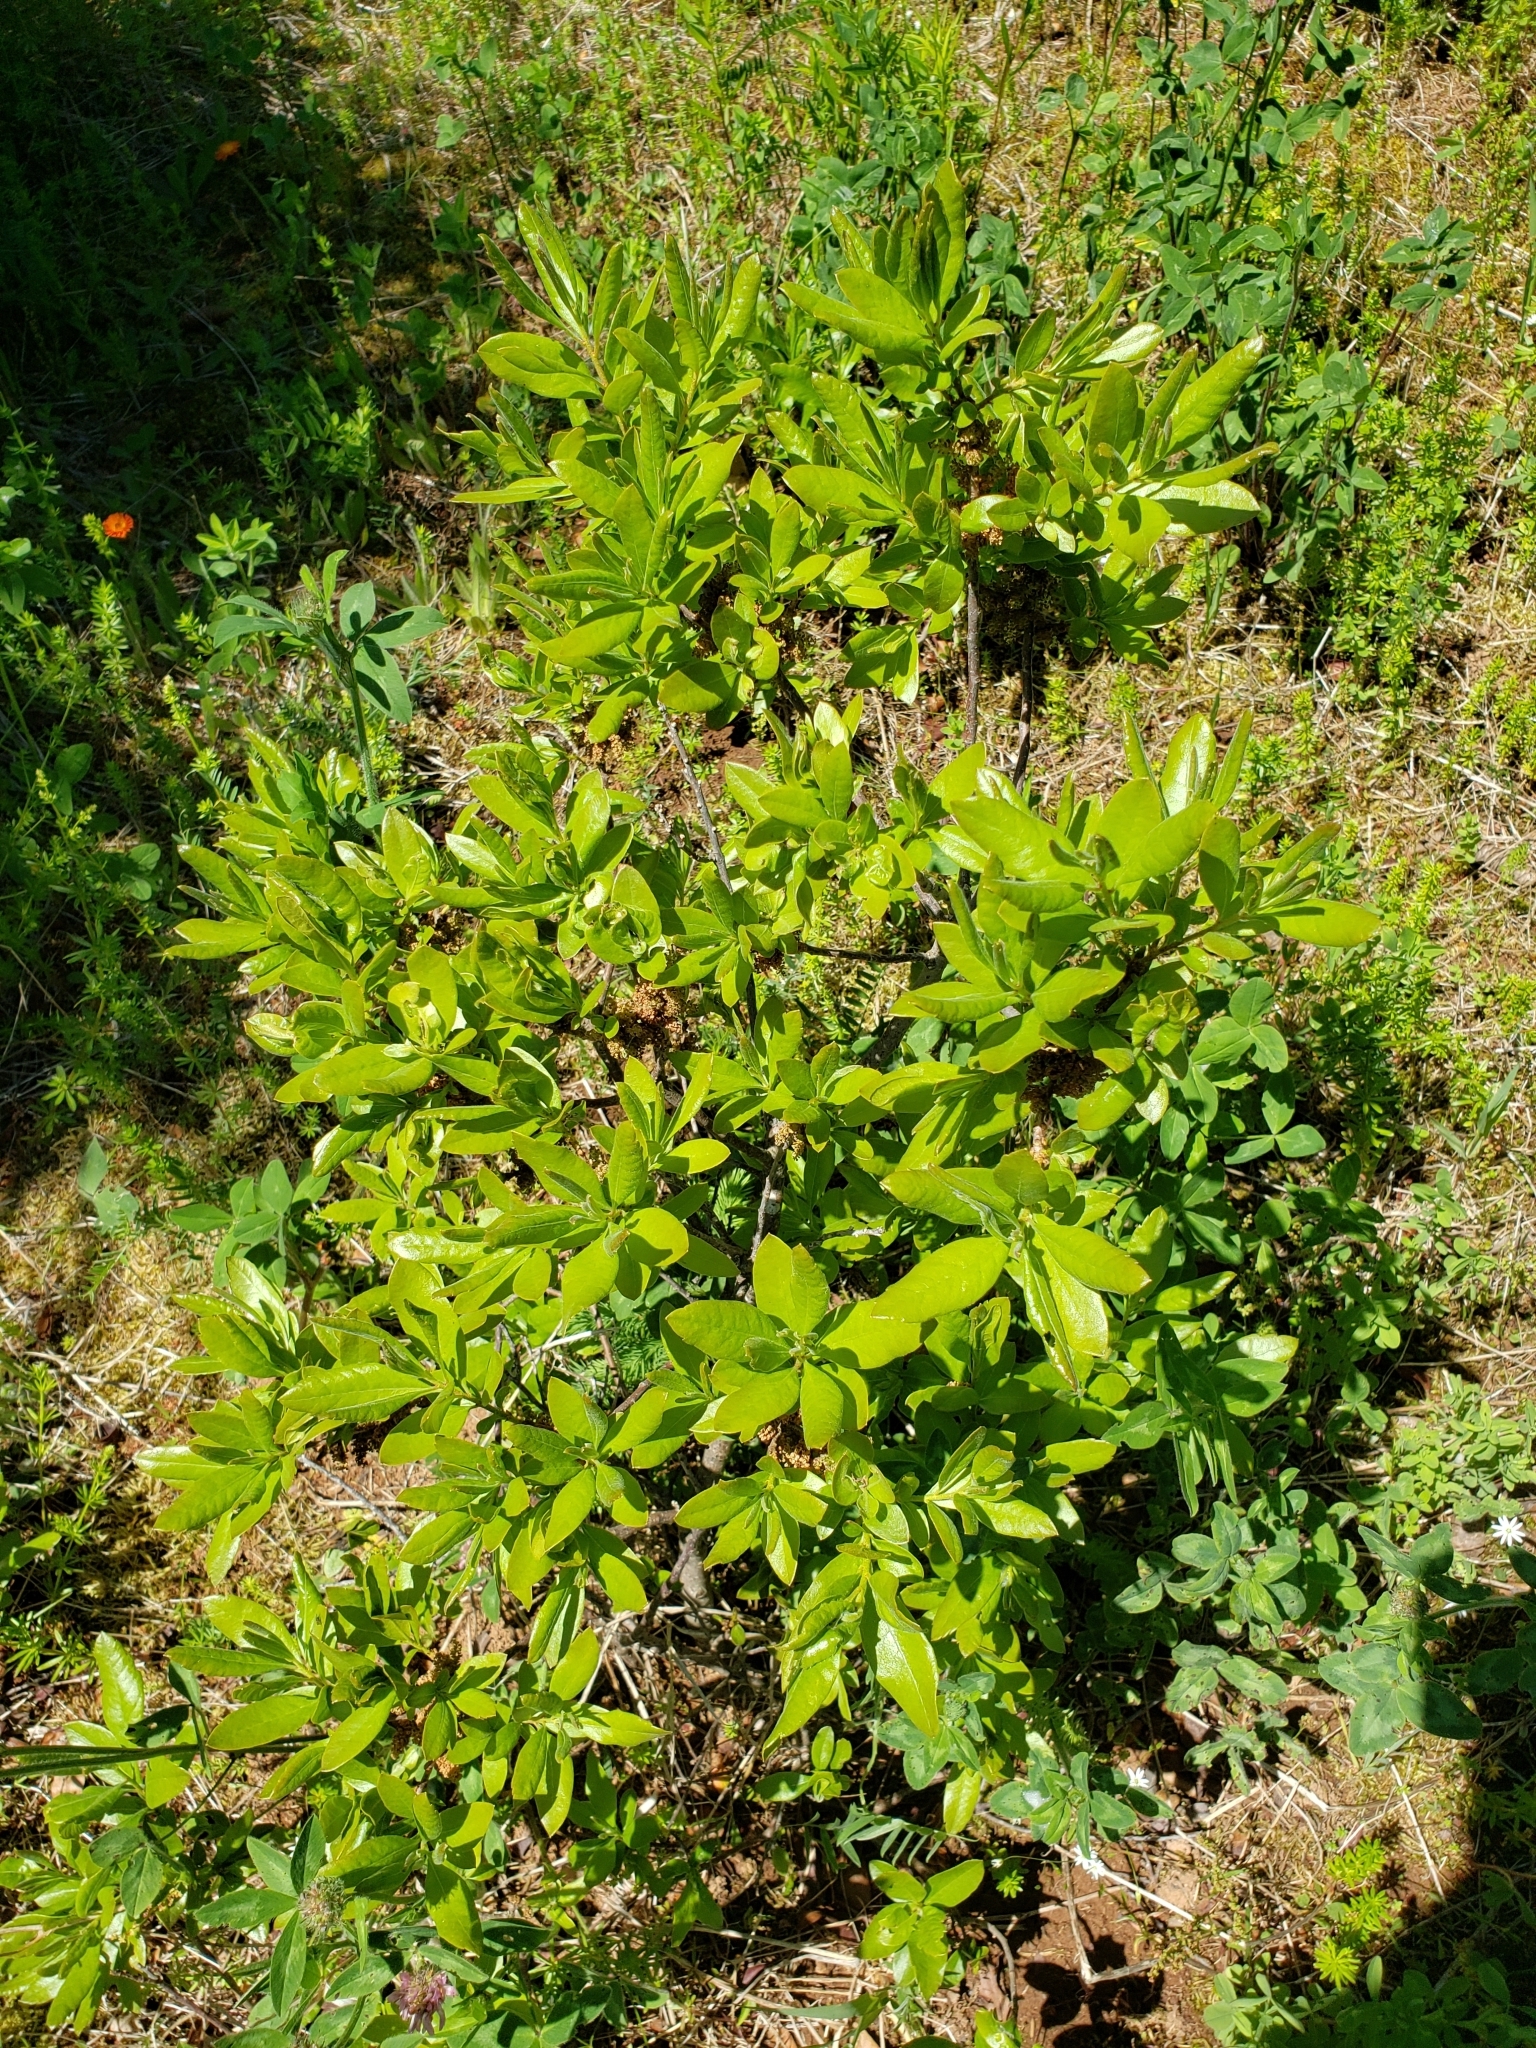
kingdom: Plantae
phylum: Tracheophyta
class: Magnoliopsida
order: Fagales
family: Myricaceae
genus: Morella
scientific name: Morella pensylvanica
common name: Northern bayberry
